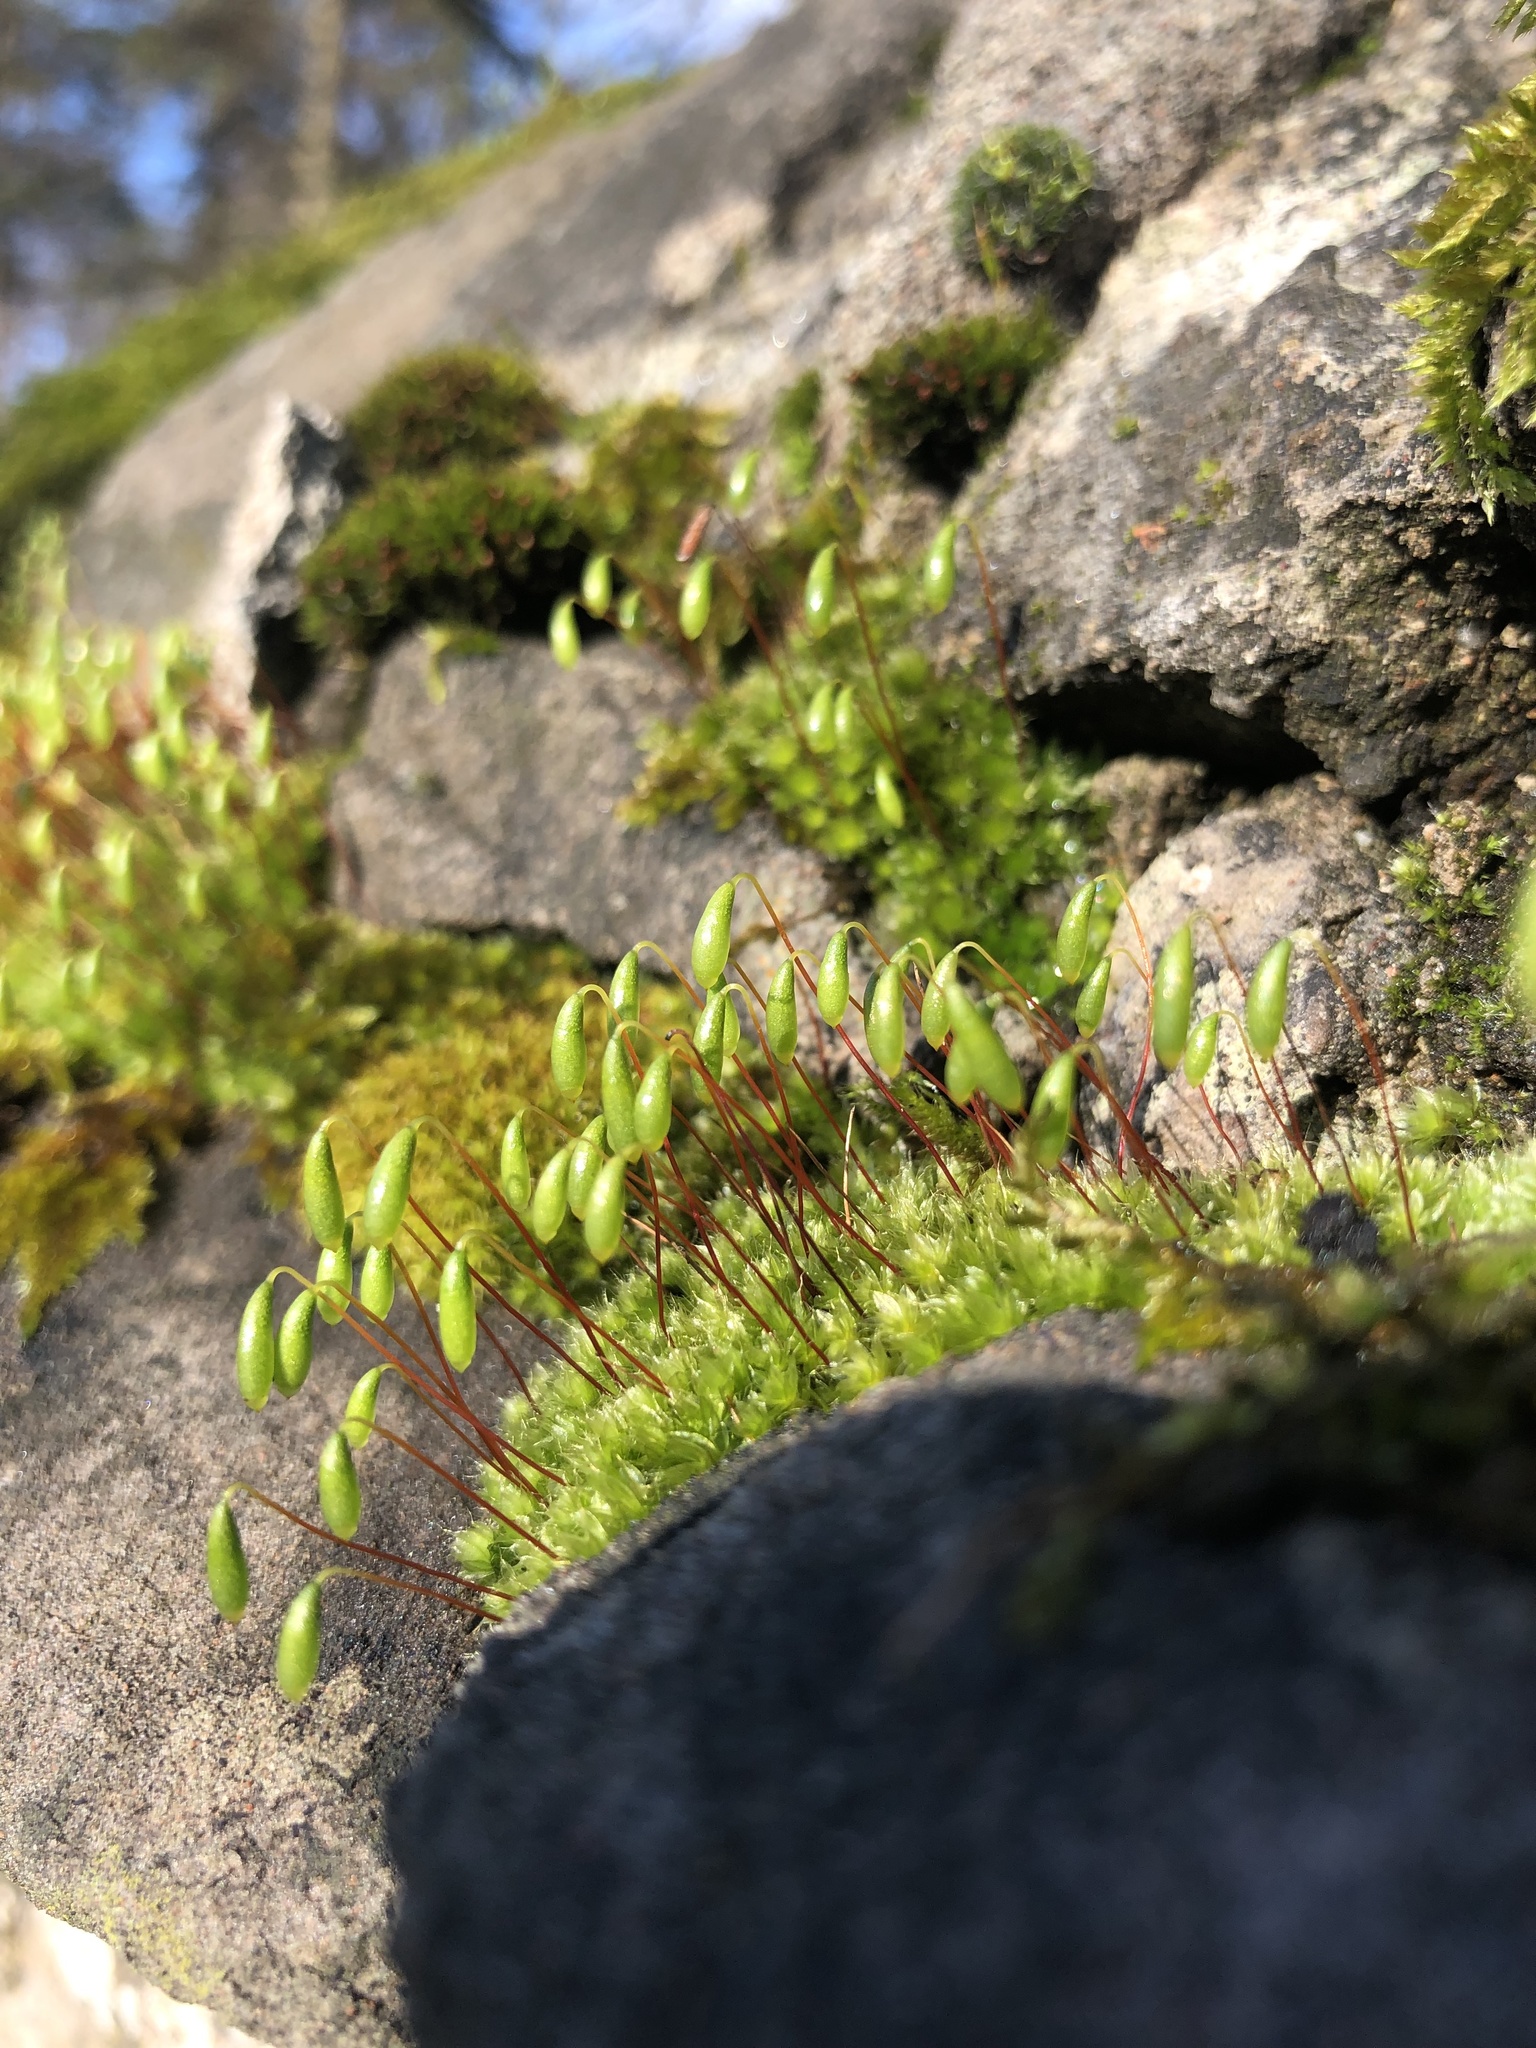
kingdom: Plantae
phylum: Bryophyta
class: Bryopsida
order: Bryales
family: Bryaceae
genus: Rosulabryum
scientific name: Rosulabryum capillare
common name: Capillary thread-moss
